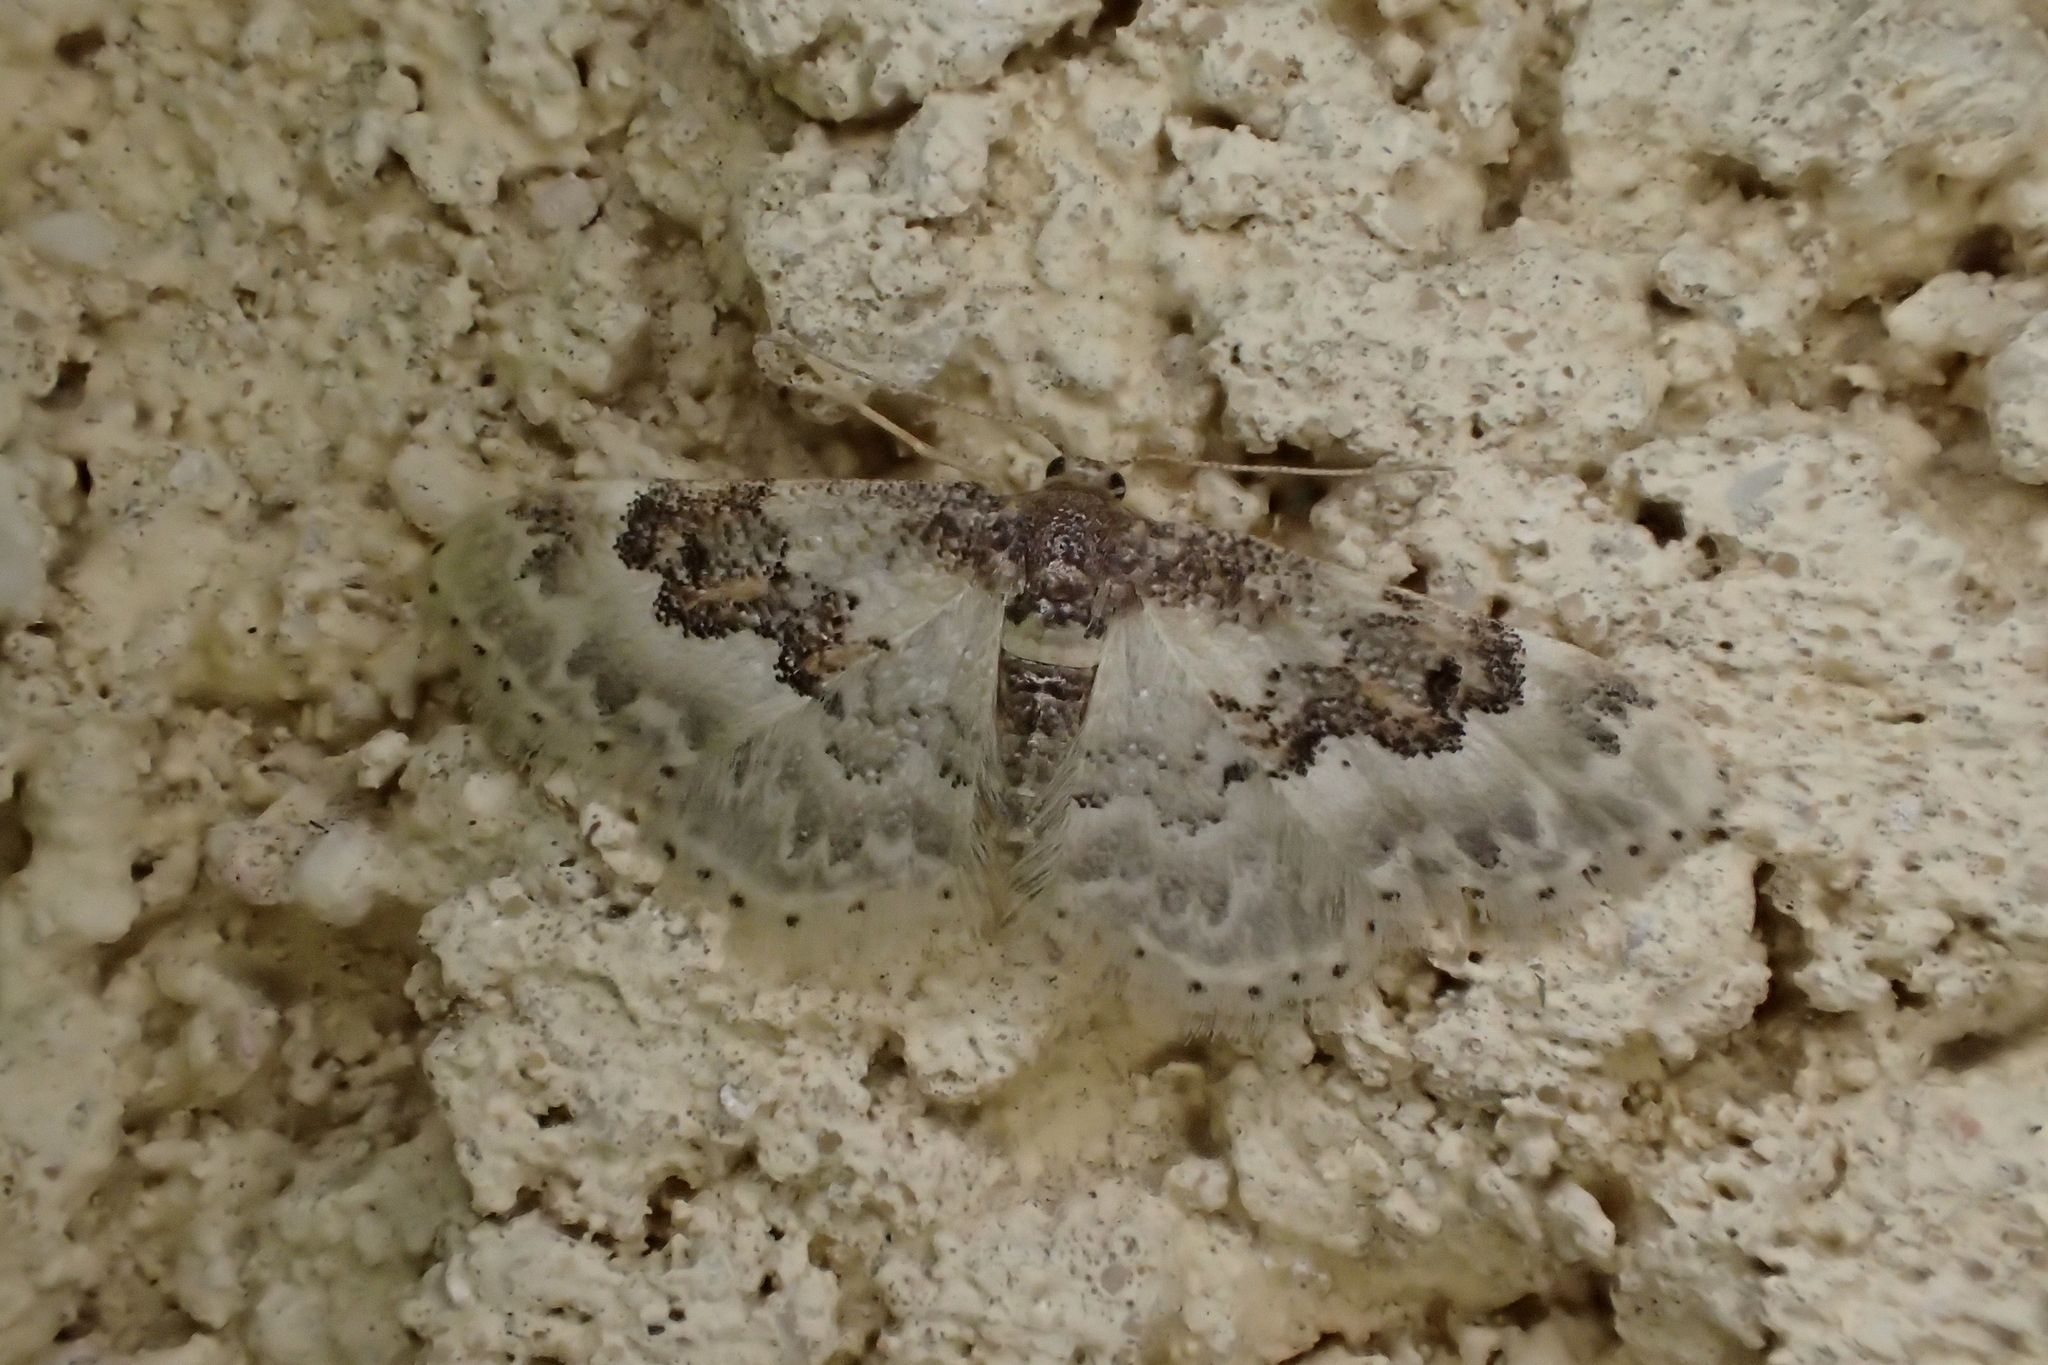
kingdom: Animalia
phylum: Arthropoda
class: Insecta
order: Lepidoptera
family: Geometridae
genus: Idaea
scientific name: Idaea rusticata
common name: Least carpet
